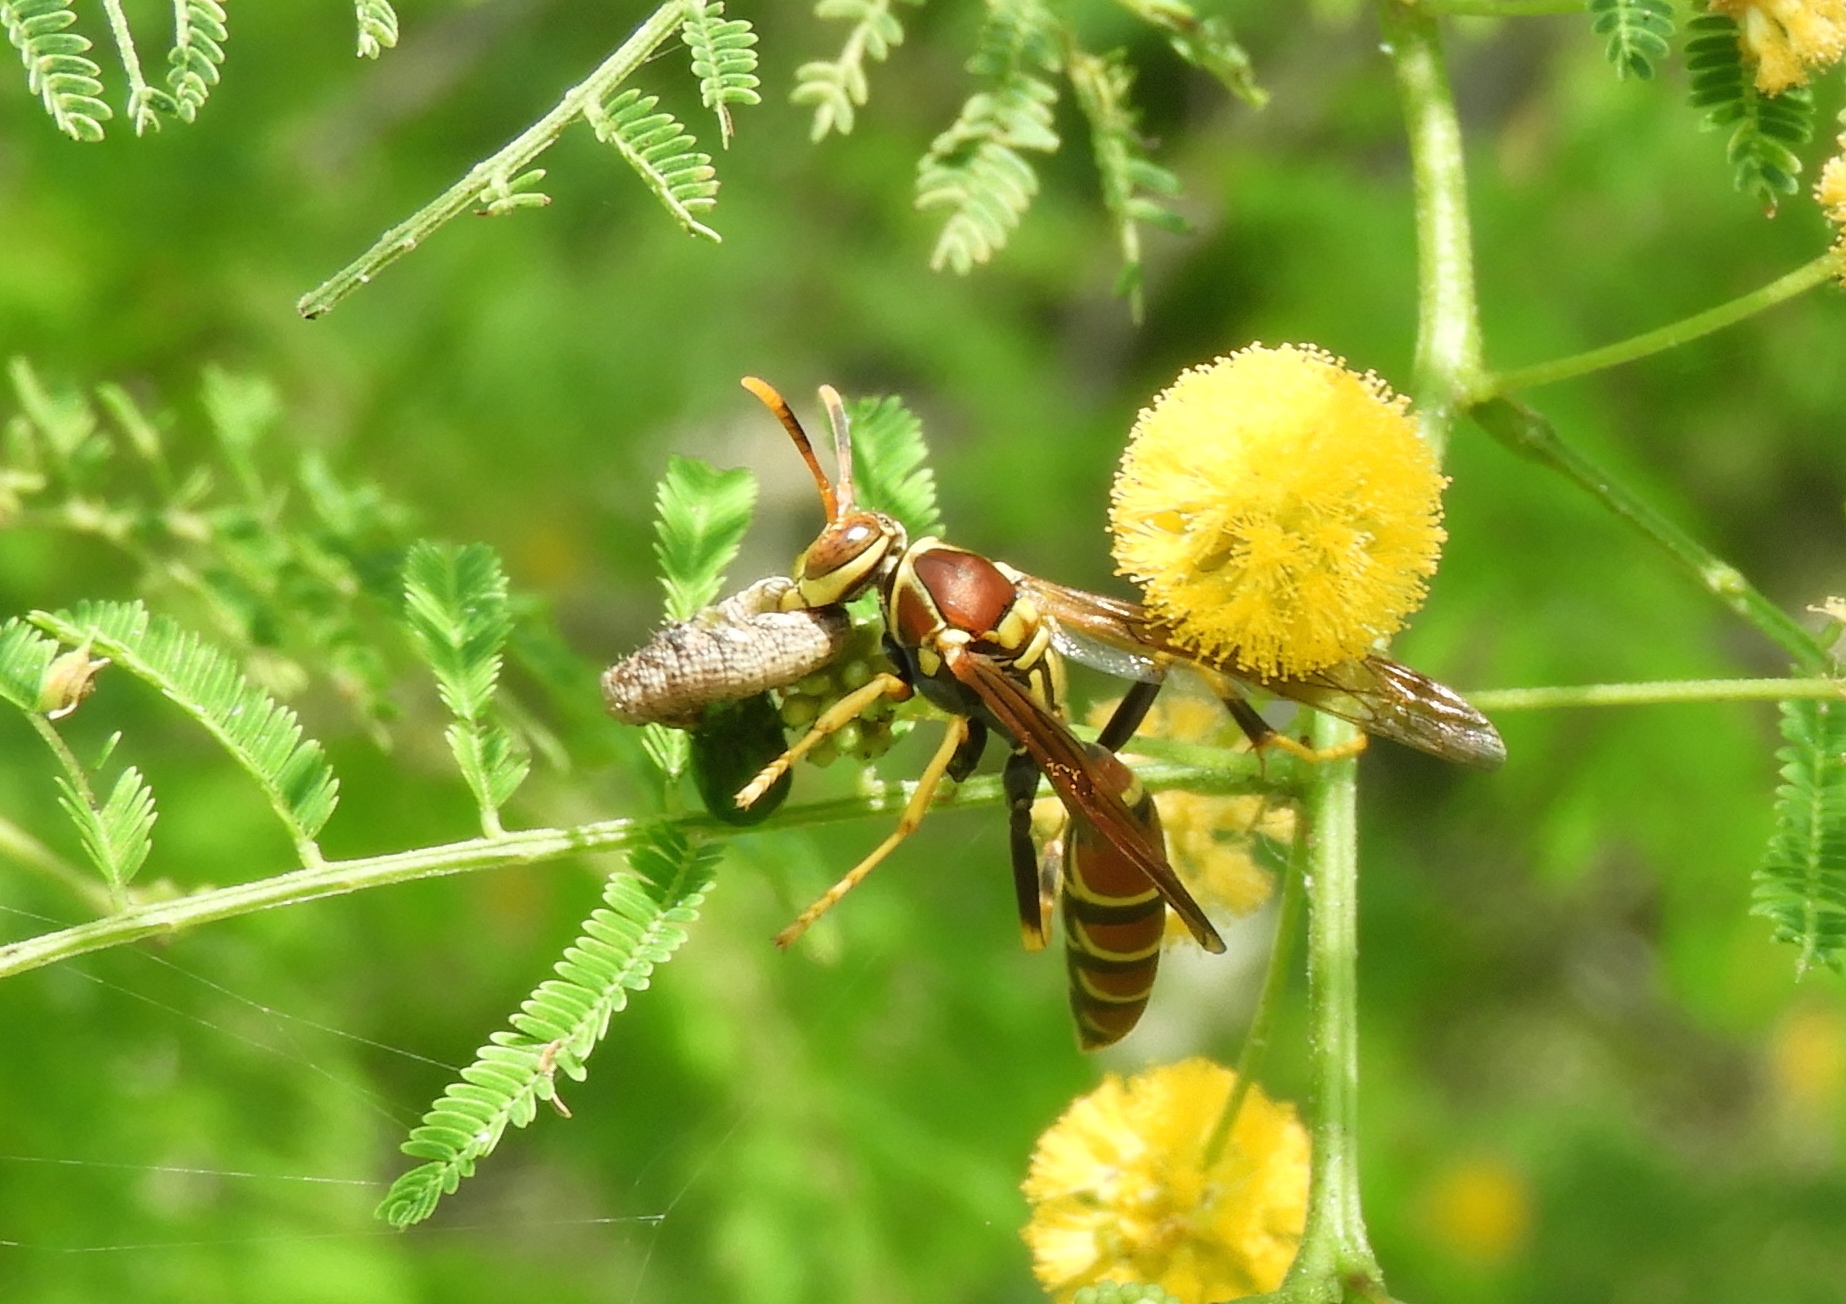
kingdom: Animalia
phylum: Arthropoda
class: Insecta
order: Hymenoptera
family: Eumenidae
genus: Polistes
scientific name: Polistes instabilis
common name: Unstable paper wasp
